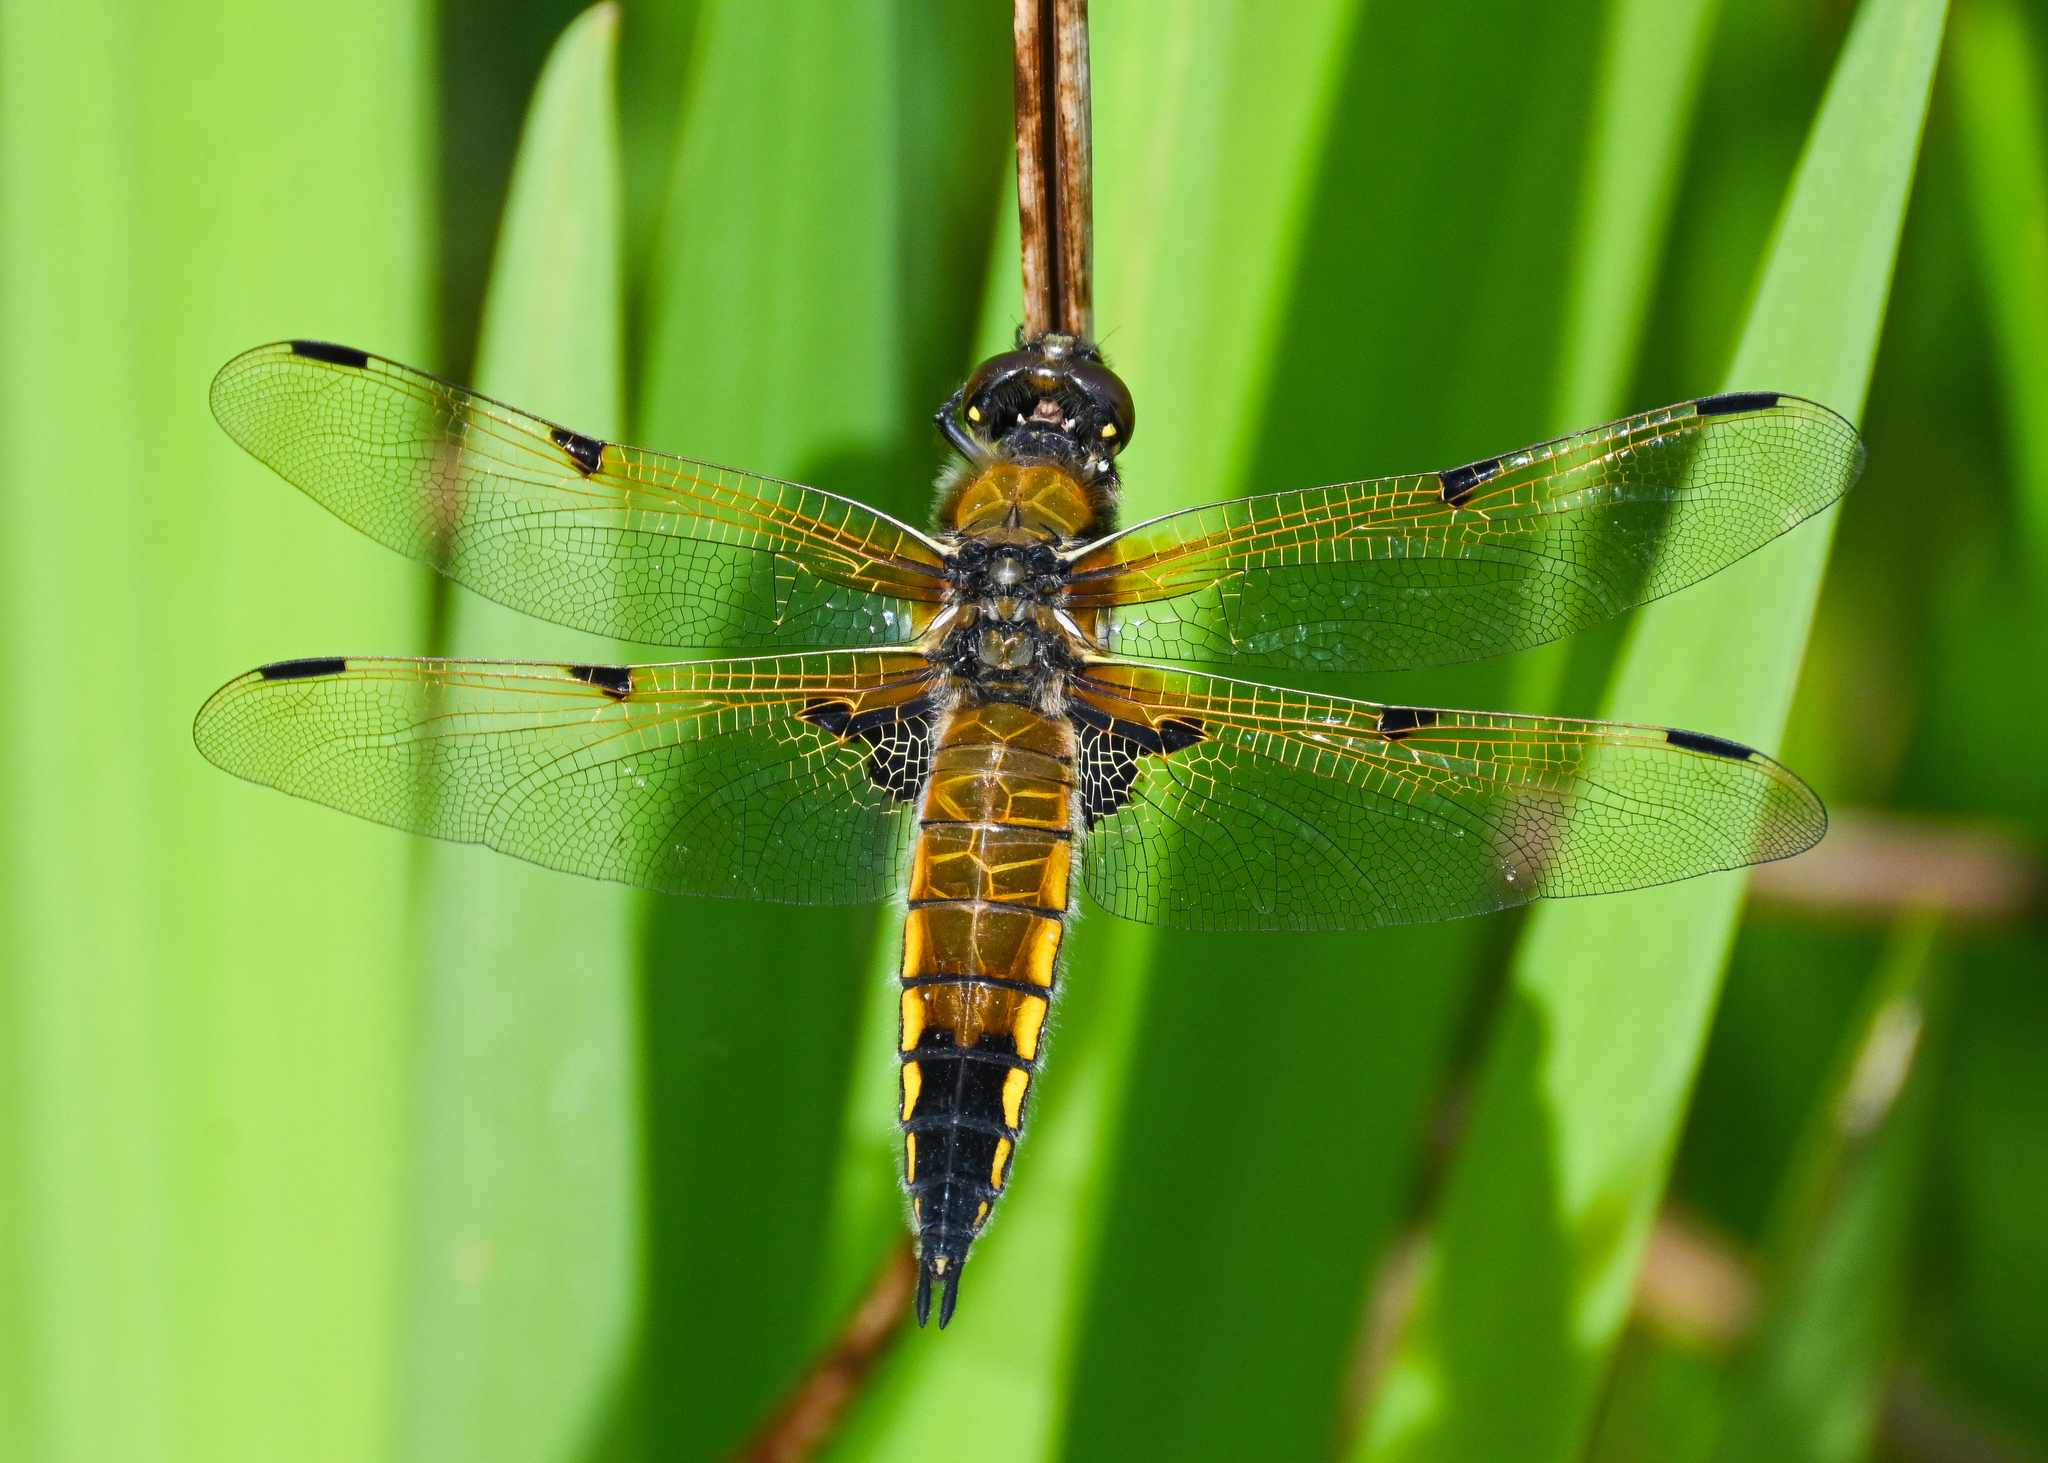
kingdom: Animalia
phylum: Arthropoda
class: Insecta
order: Odonata
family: Libellulidae
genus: Libellula
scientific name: Libellula quadrimaculata
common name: Four-spotted chaser
